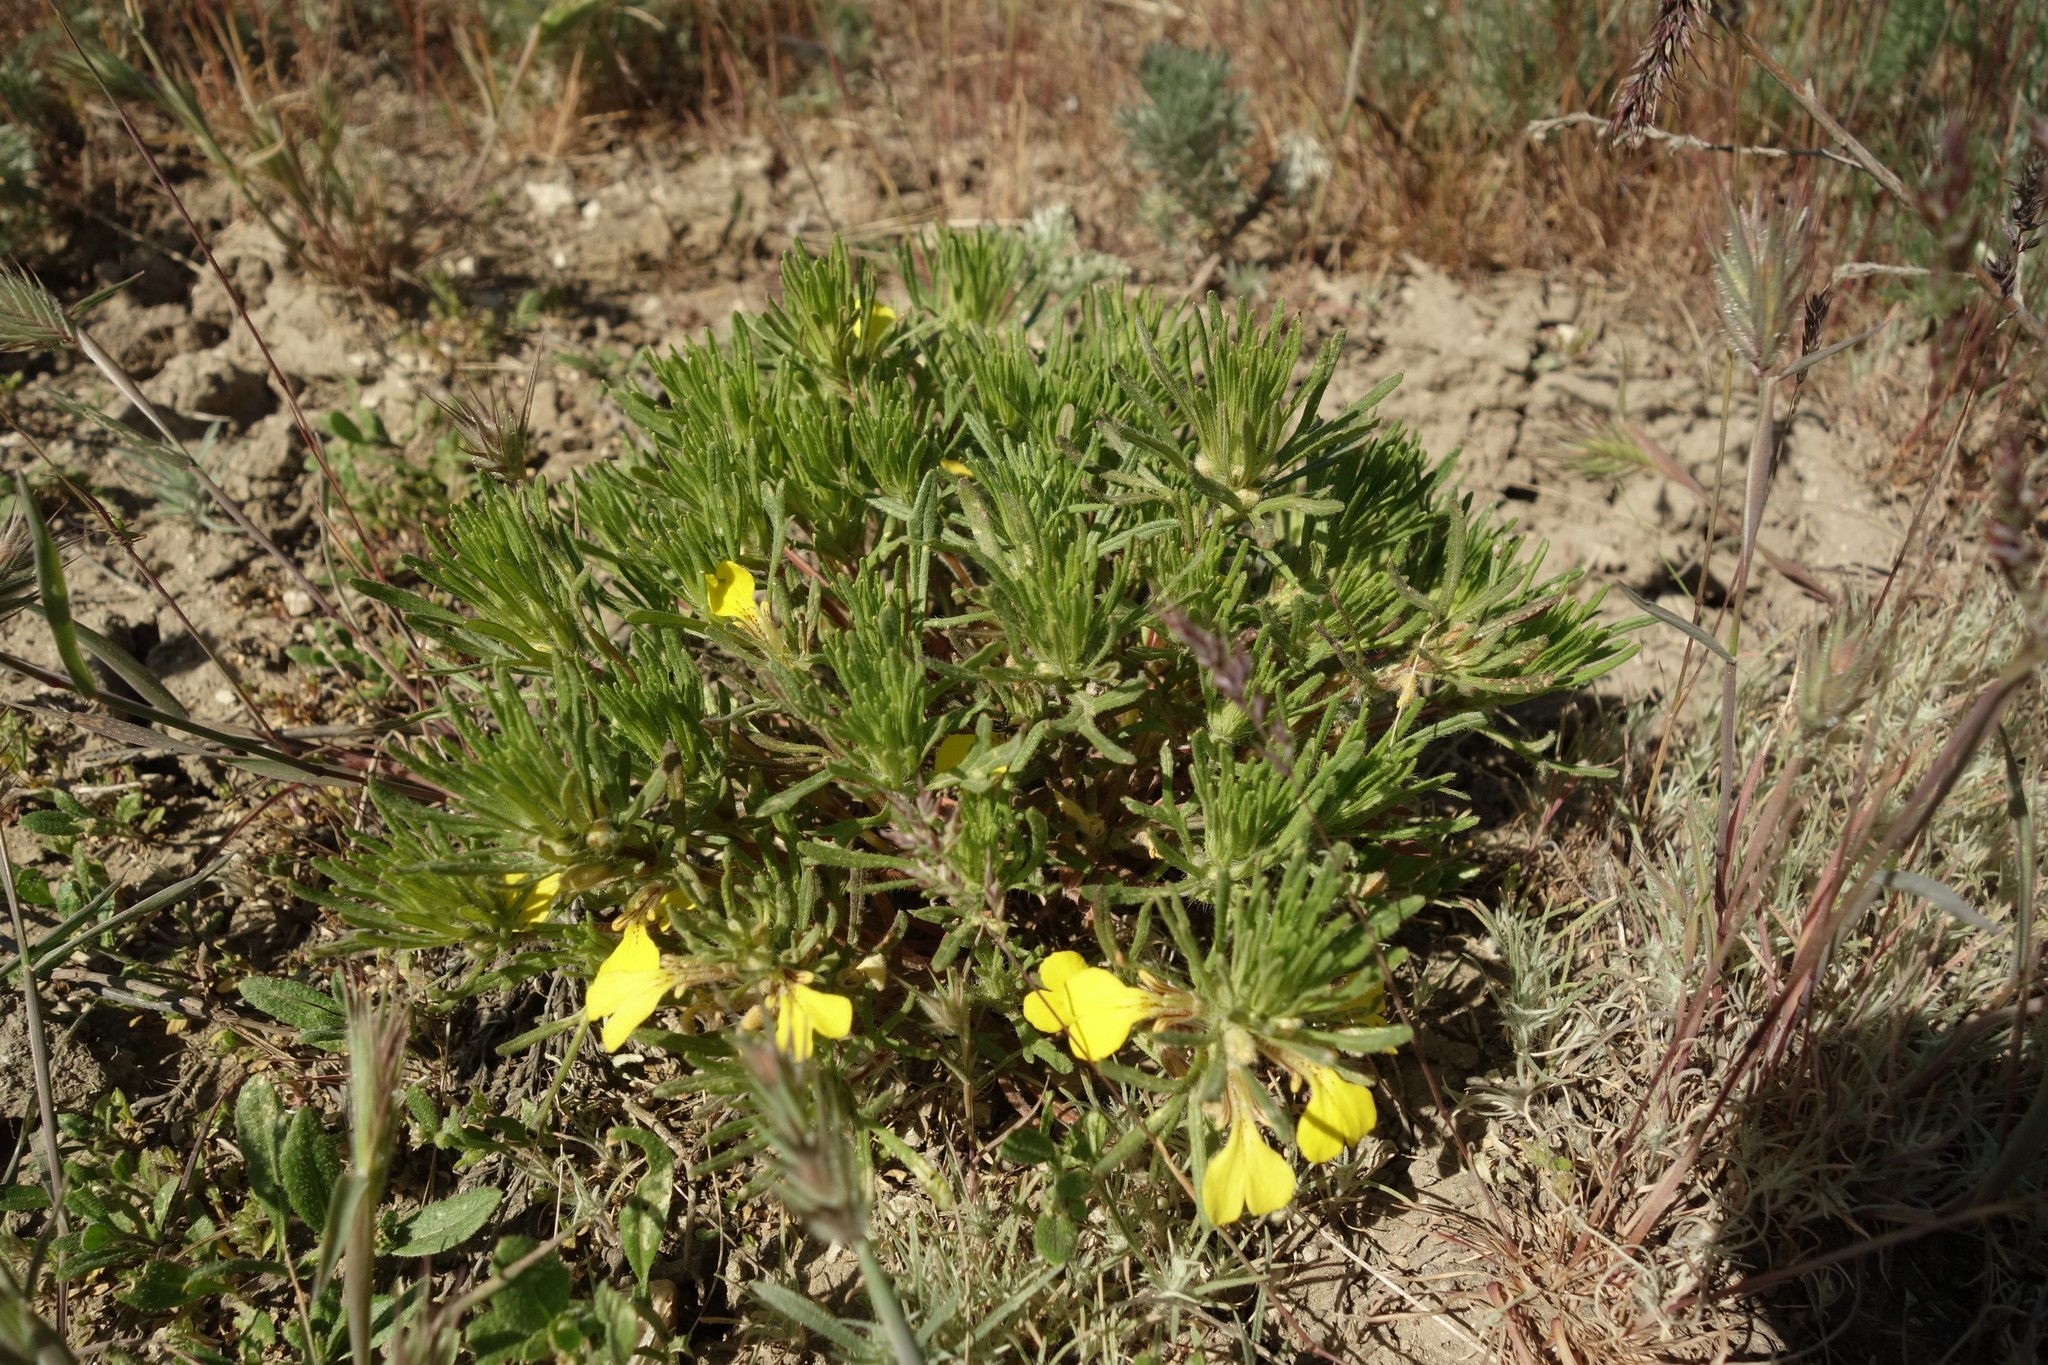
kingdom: Plantae
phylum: Tracheophyta
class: Magnoliopsida
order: Lamiales
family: Lamiaceae
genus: Ajuga
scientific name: Ajuga chamaepitys
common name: Ground-pine
